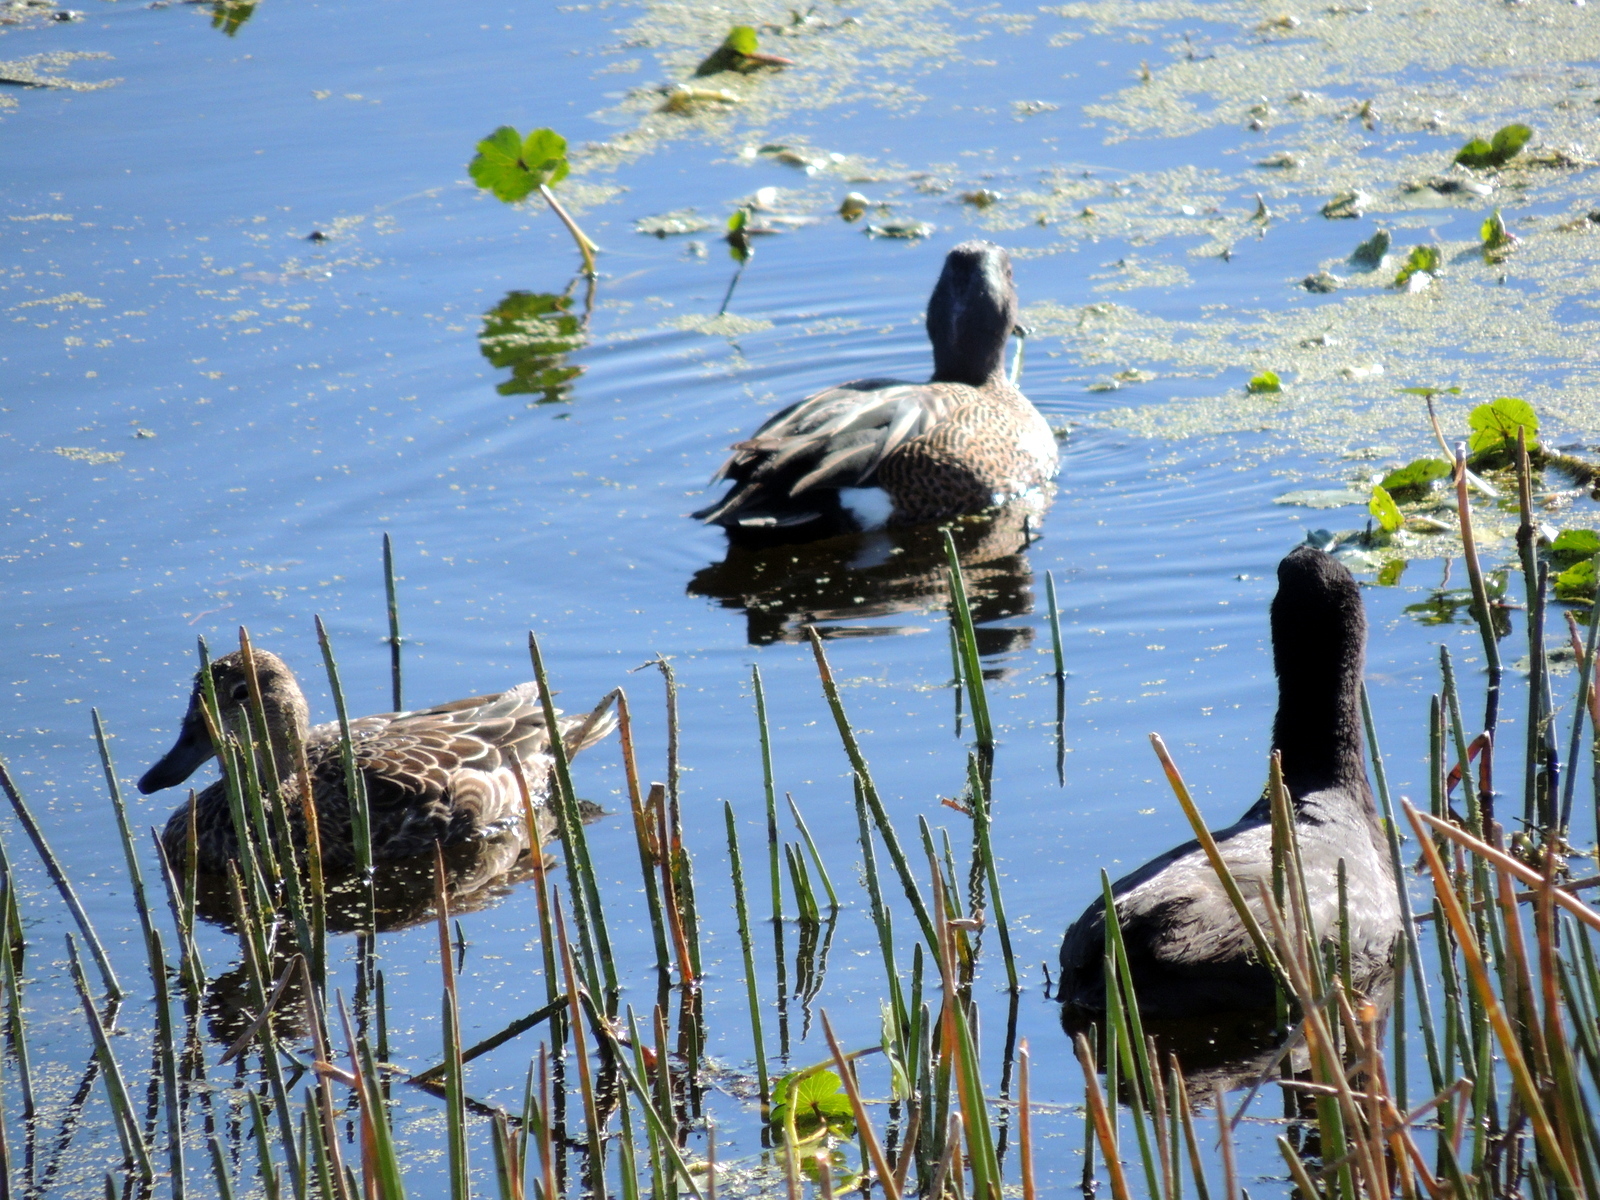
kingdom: Animalia
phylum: Chordata
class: Aves
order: Anseriformes
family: Anatidae
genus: Spatula
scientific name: Spatula discors
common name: Blue-winged teal
